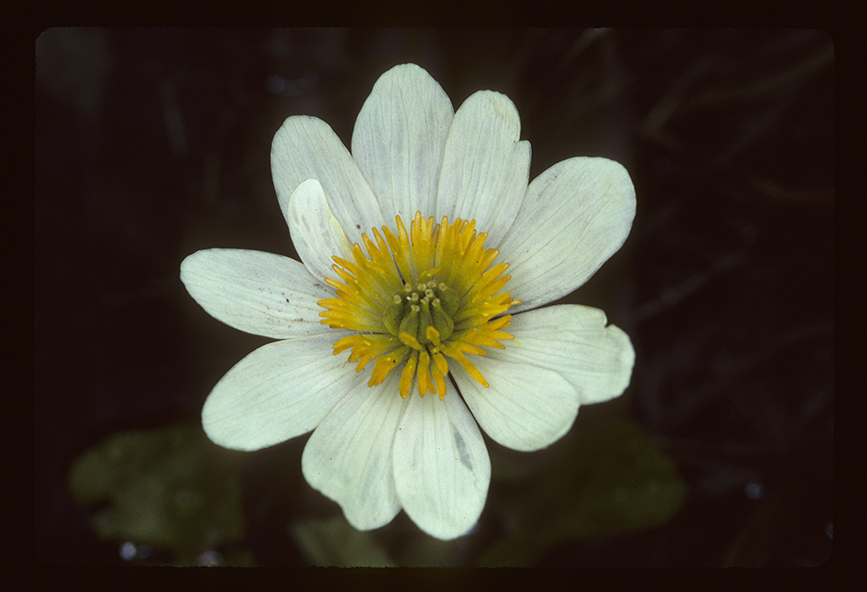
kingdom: Plantae
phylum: Tracheophyta
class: Magnoliopsida
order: Ranunculales
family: Ranunculaceae
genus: Caltha
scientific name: Caltha leptosepala
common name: Elkslip
